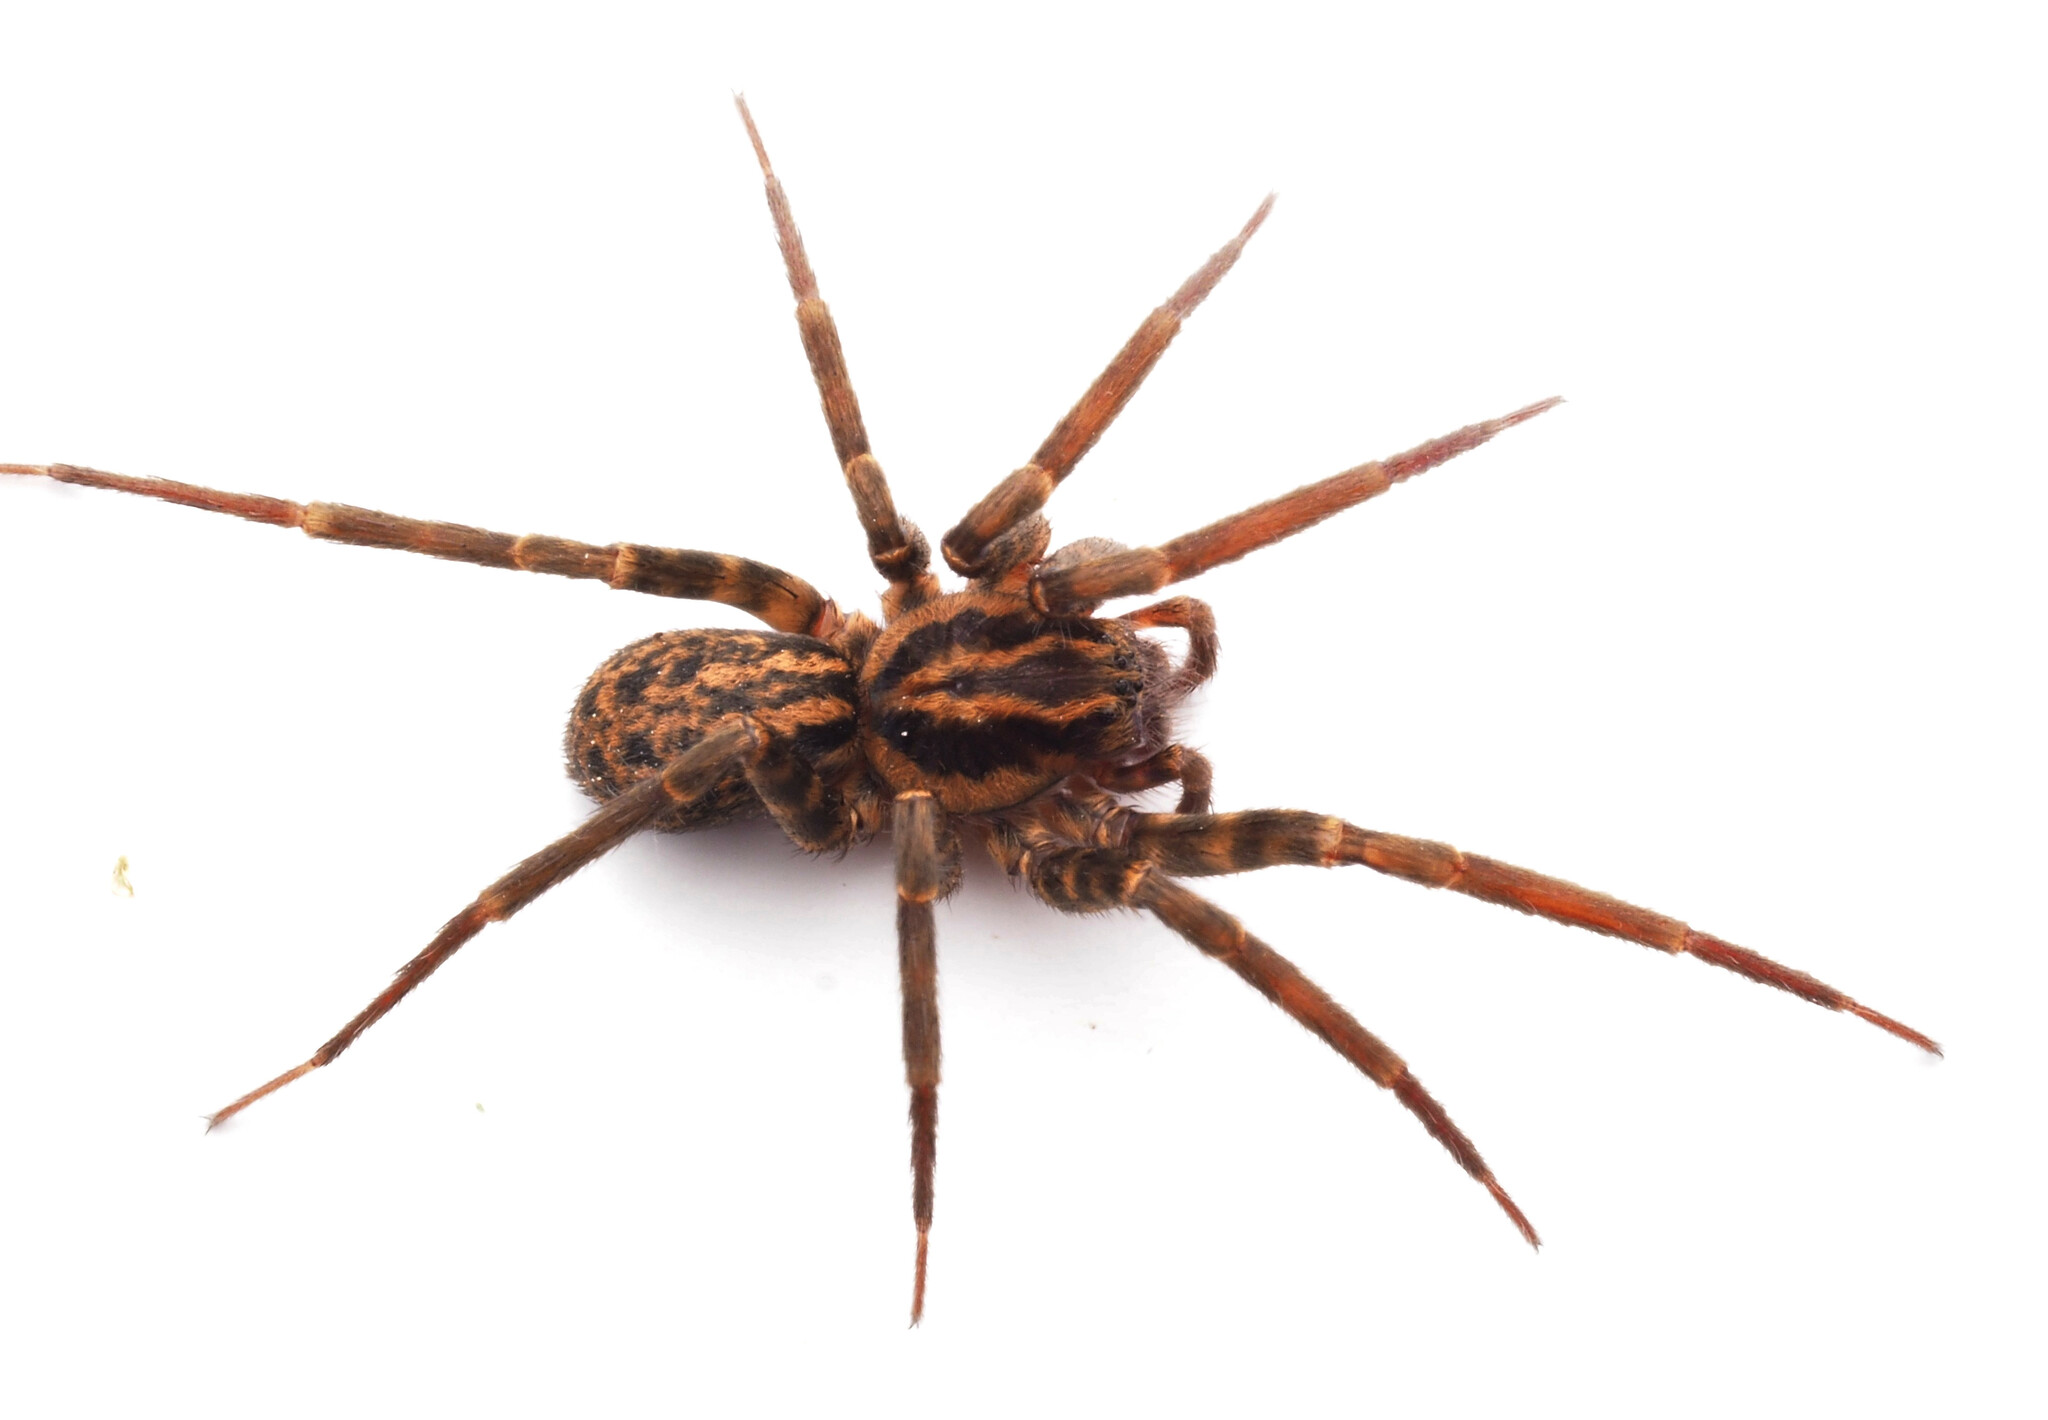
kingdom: Animalia
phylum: Arthropoda
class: Arachnida
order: Araneae
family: Zoropsidae
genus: Austrotengella
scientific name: Austrotengella hackerae
